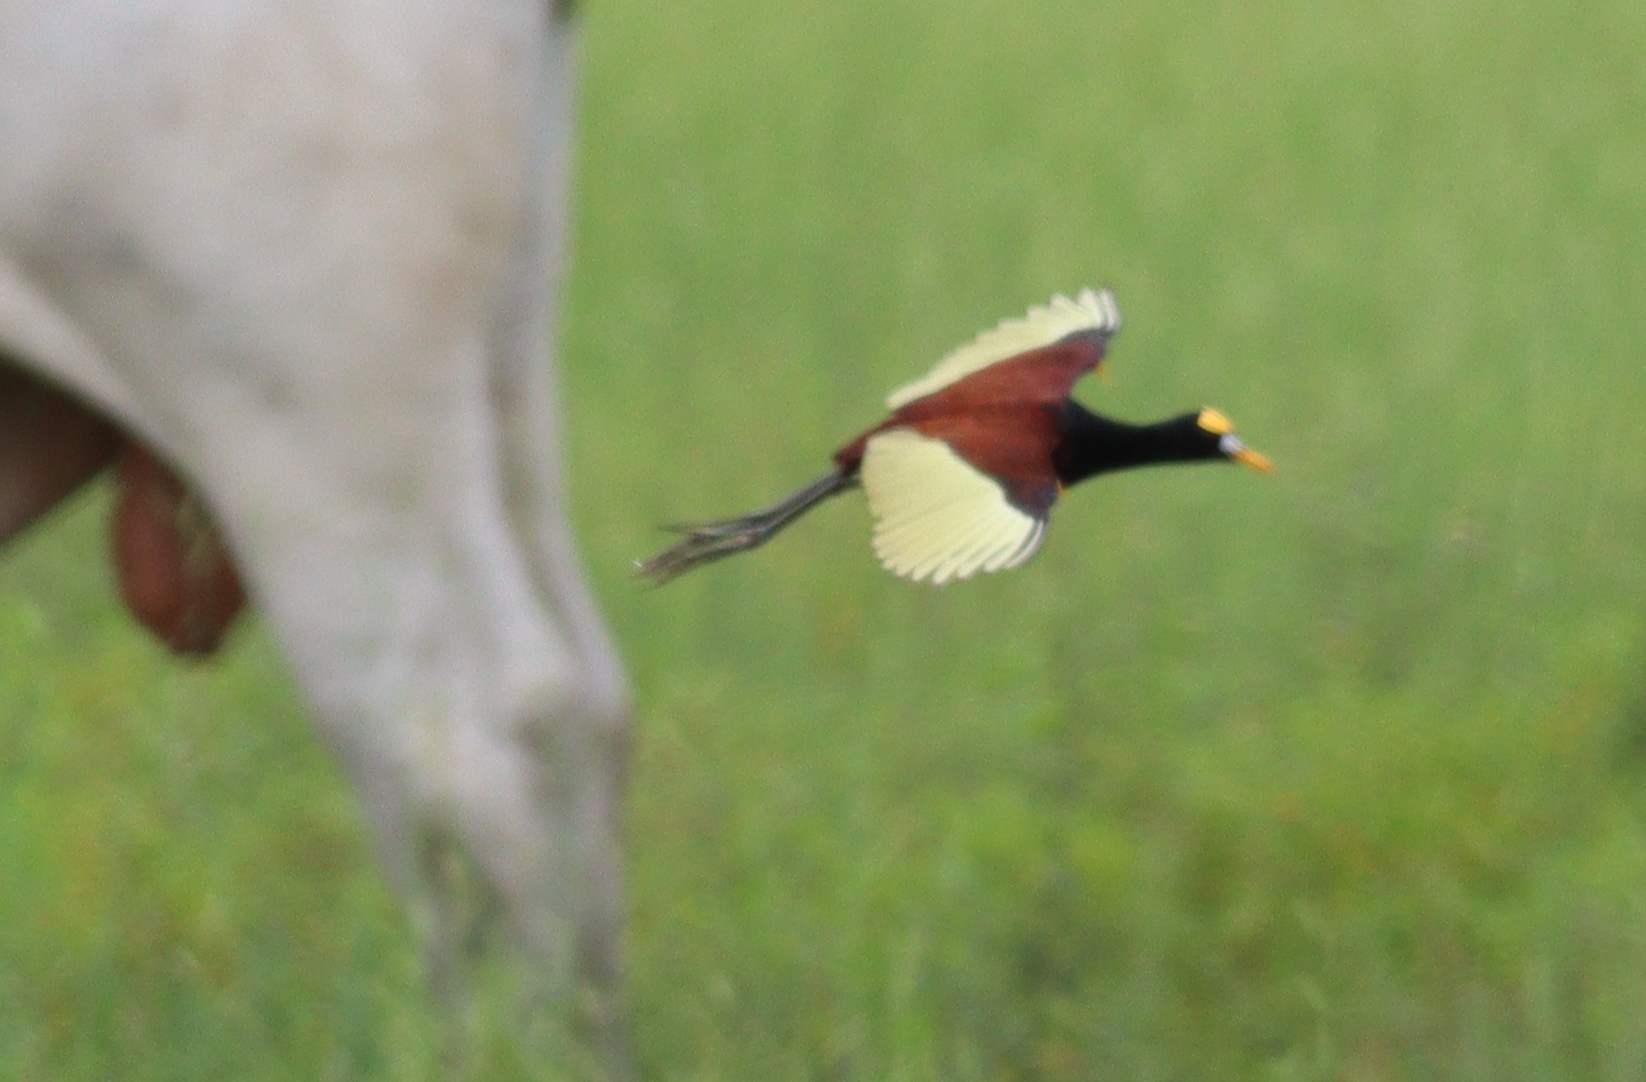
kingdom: Animalia
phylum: Chordata
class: Aves
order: Charadriiformes
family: Jacanidae
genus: Jacana
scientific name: Jacana spinosa
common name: Northern jacana
